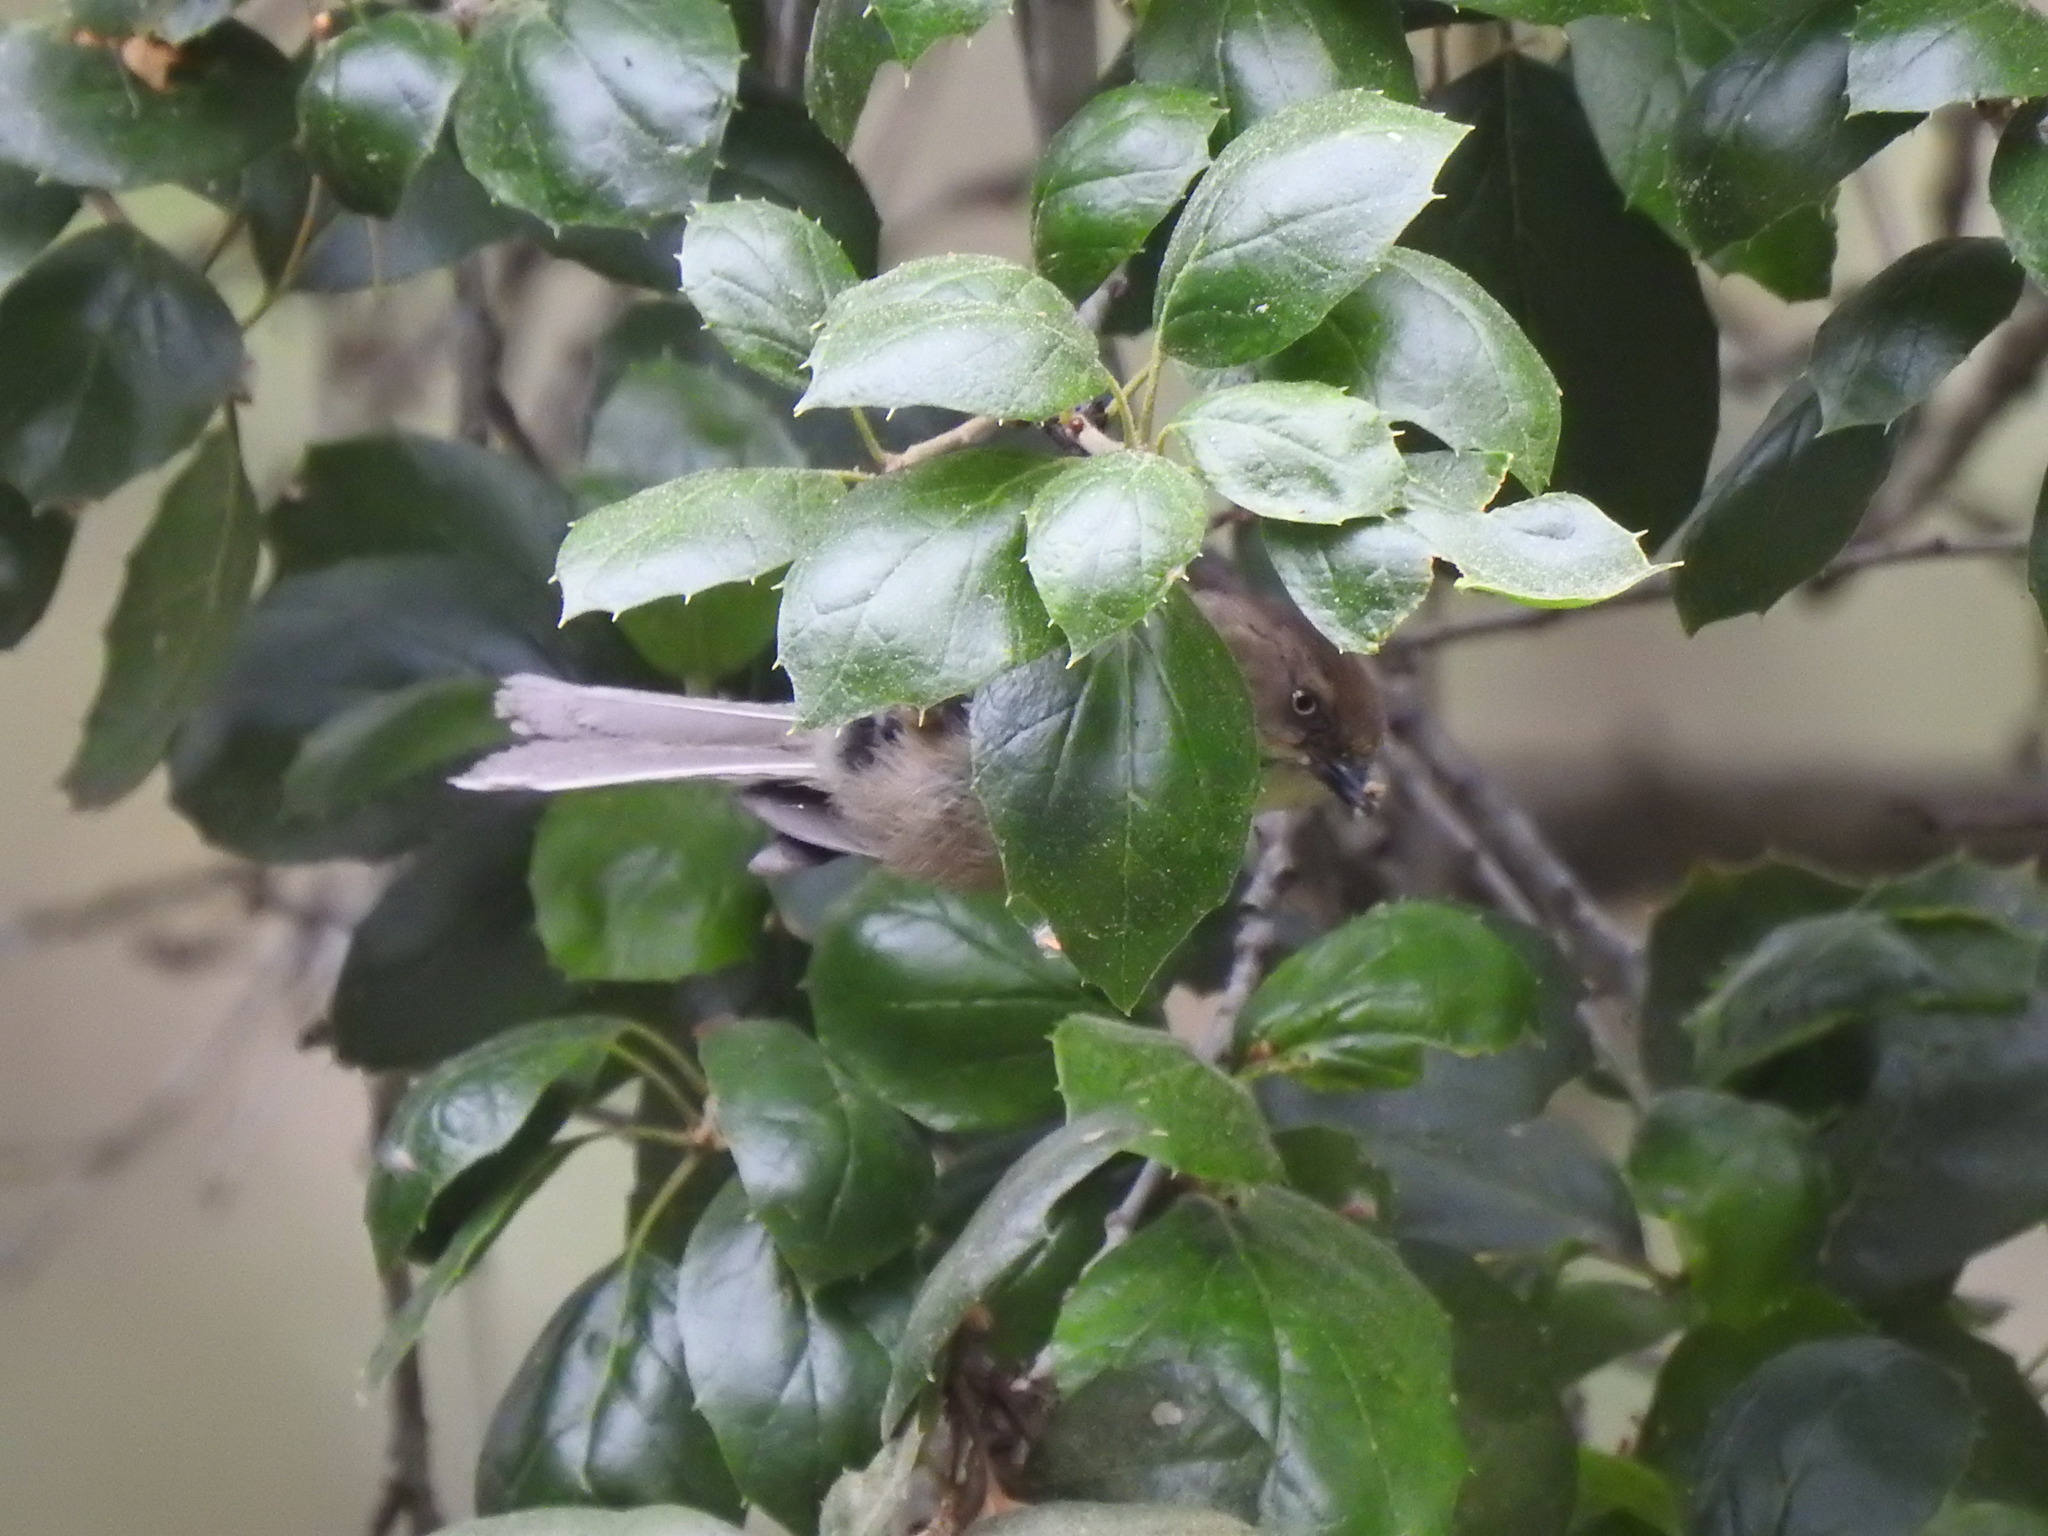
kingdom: Animalia
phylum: Chordata
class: Aves
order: Passeriformes
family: Aegithalidae
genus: Psaltriparus
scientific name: Psaltriparus minimus
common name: American bushtit
